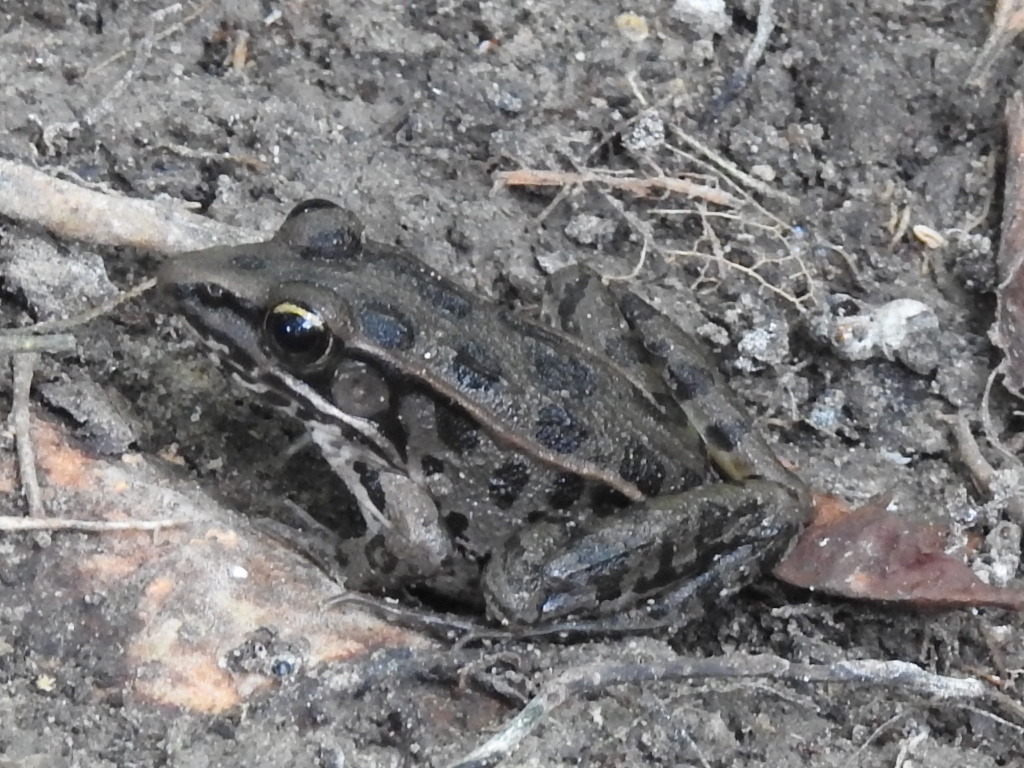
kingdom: Animalia
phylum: Chordata
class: Amphibia
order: Anura
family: Ranidae
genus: Lithobates
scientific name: Lithobates sphenocephalus
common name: Southern leopard frog
